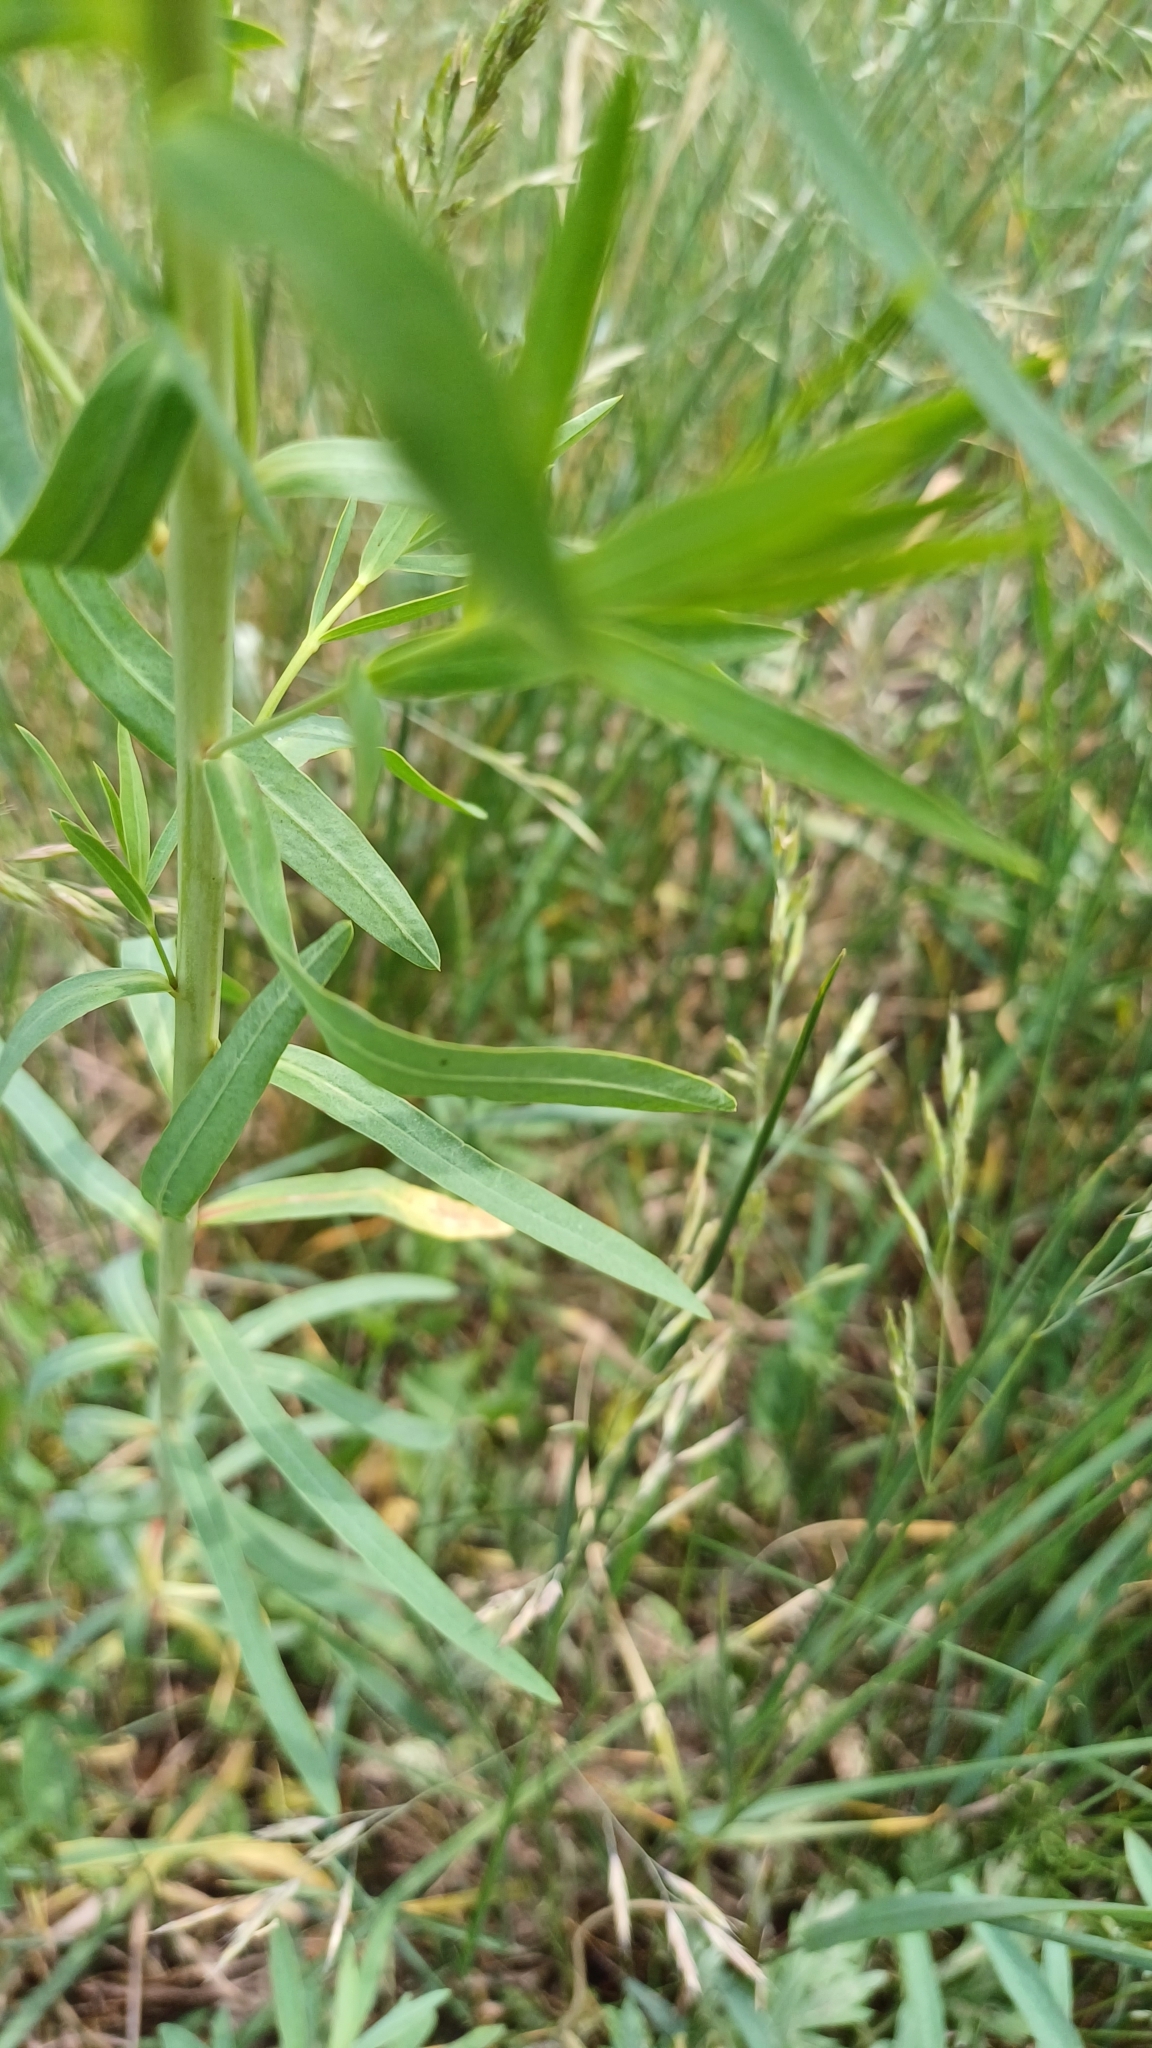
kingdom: Plantae
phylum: Tracheophyta
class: Magnoliopsida
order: Malpighiales
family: Euphorbiaceae
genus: Euphorbia
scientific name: Euphorbia virgata
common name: Leafy spurge
